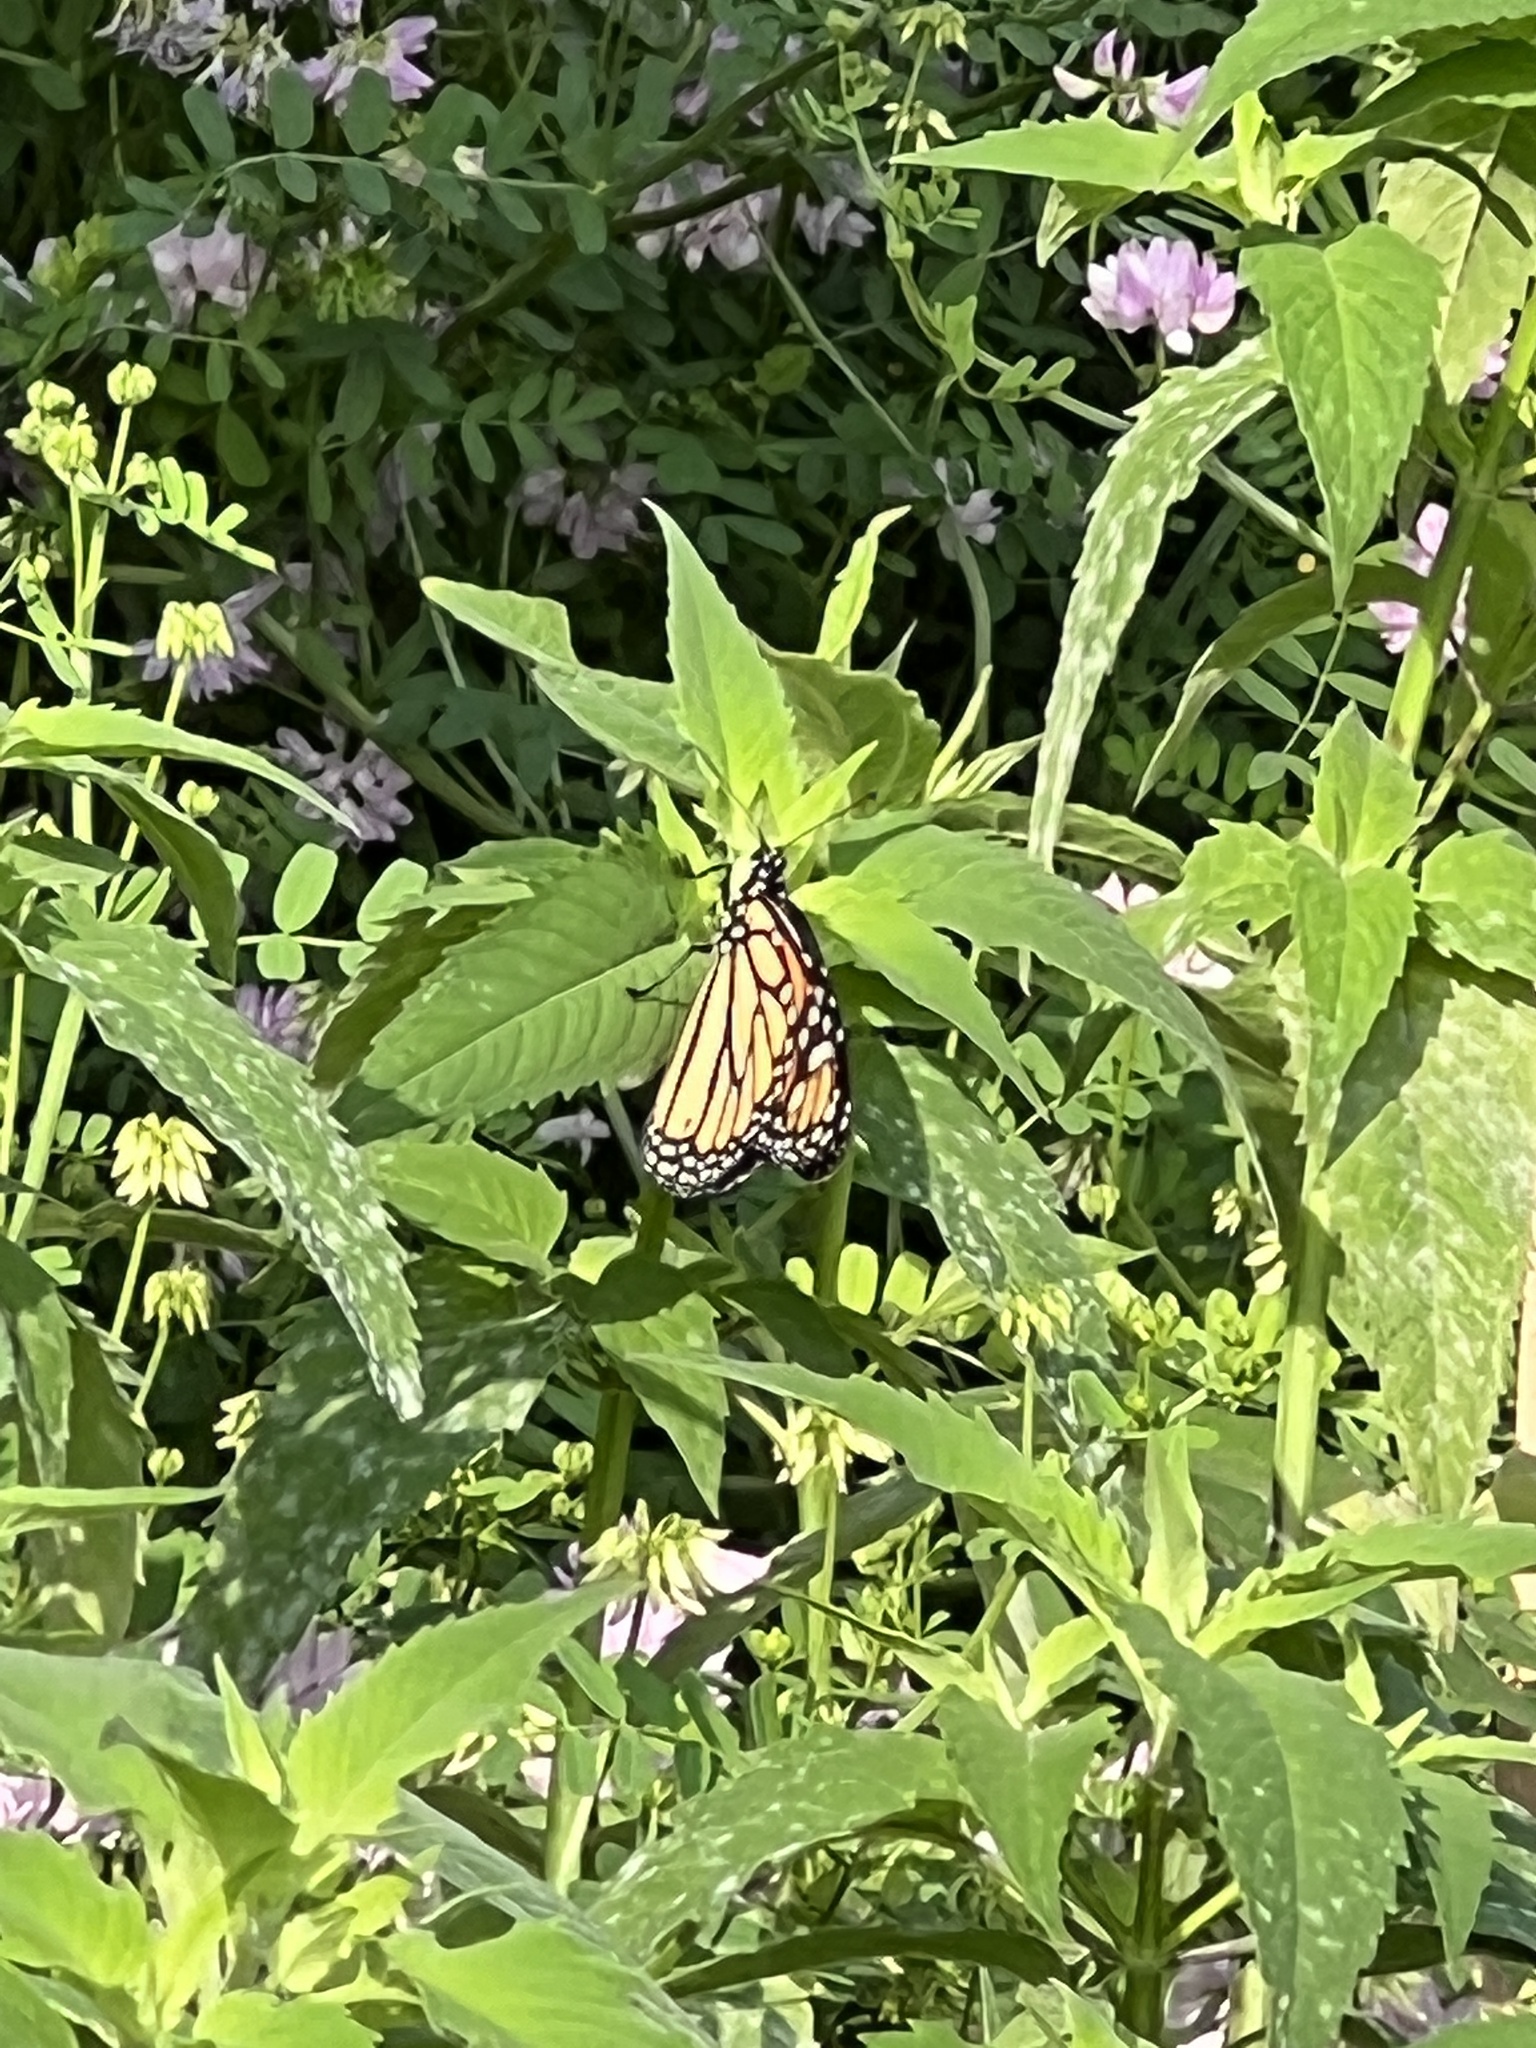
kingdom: Animalia
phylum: Arthropoda
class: Insecta
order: Lepidoptera
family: Nymphalidae
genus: Danaus
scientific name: Danaus plexippus
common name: Monarch
